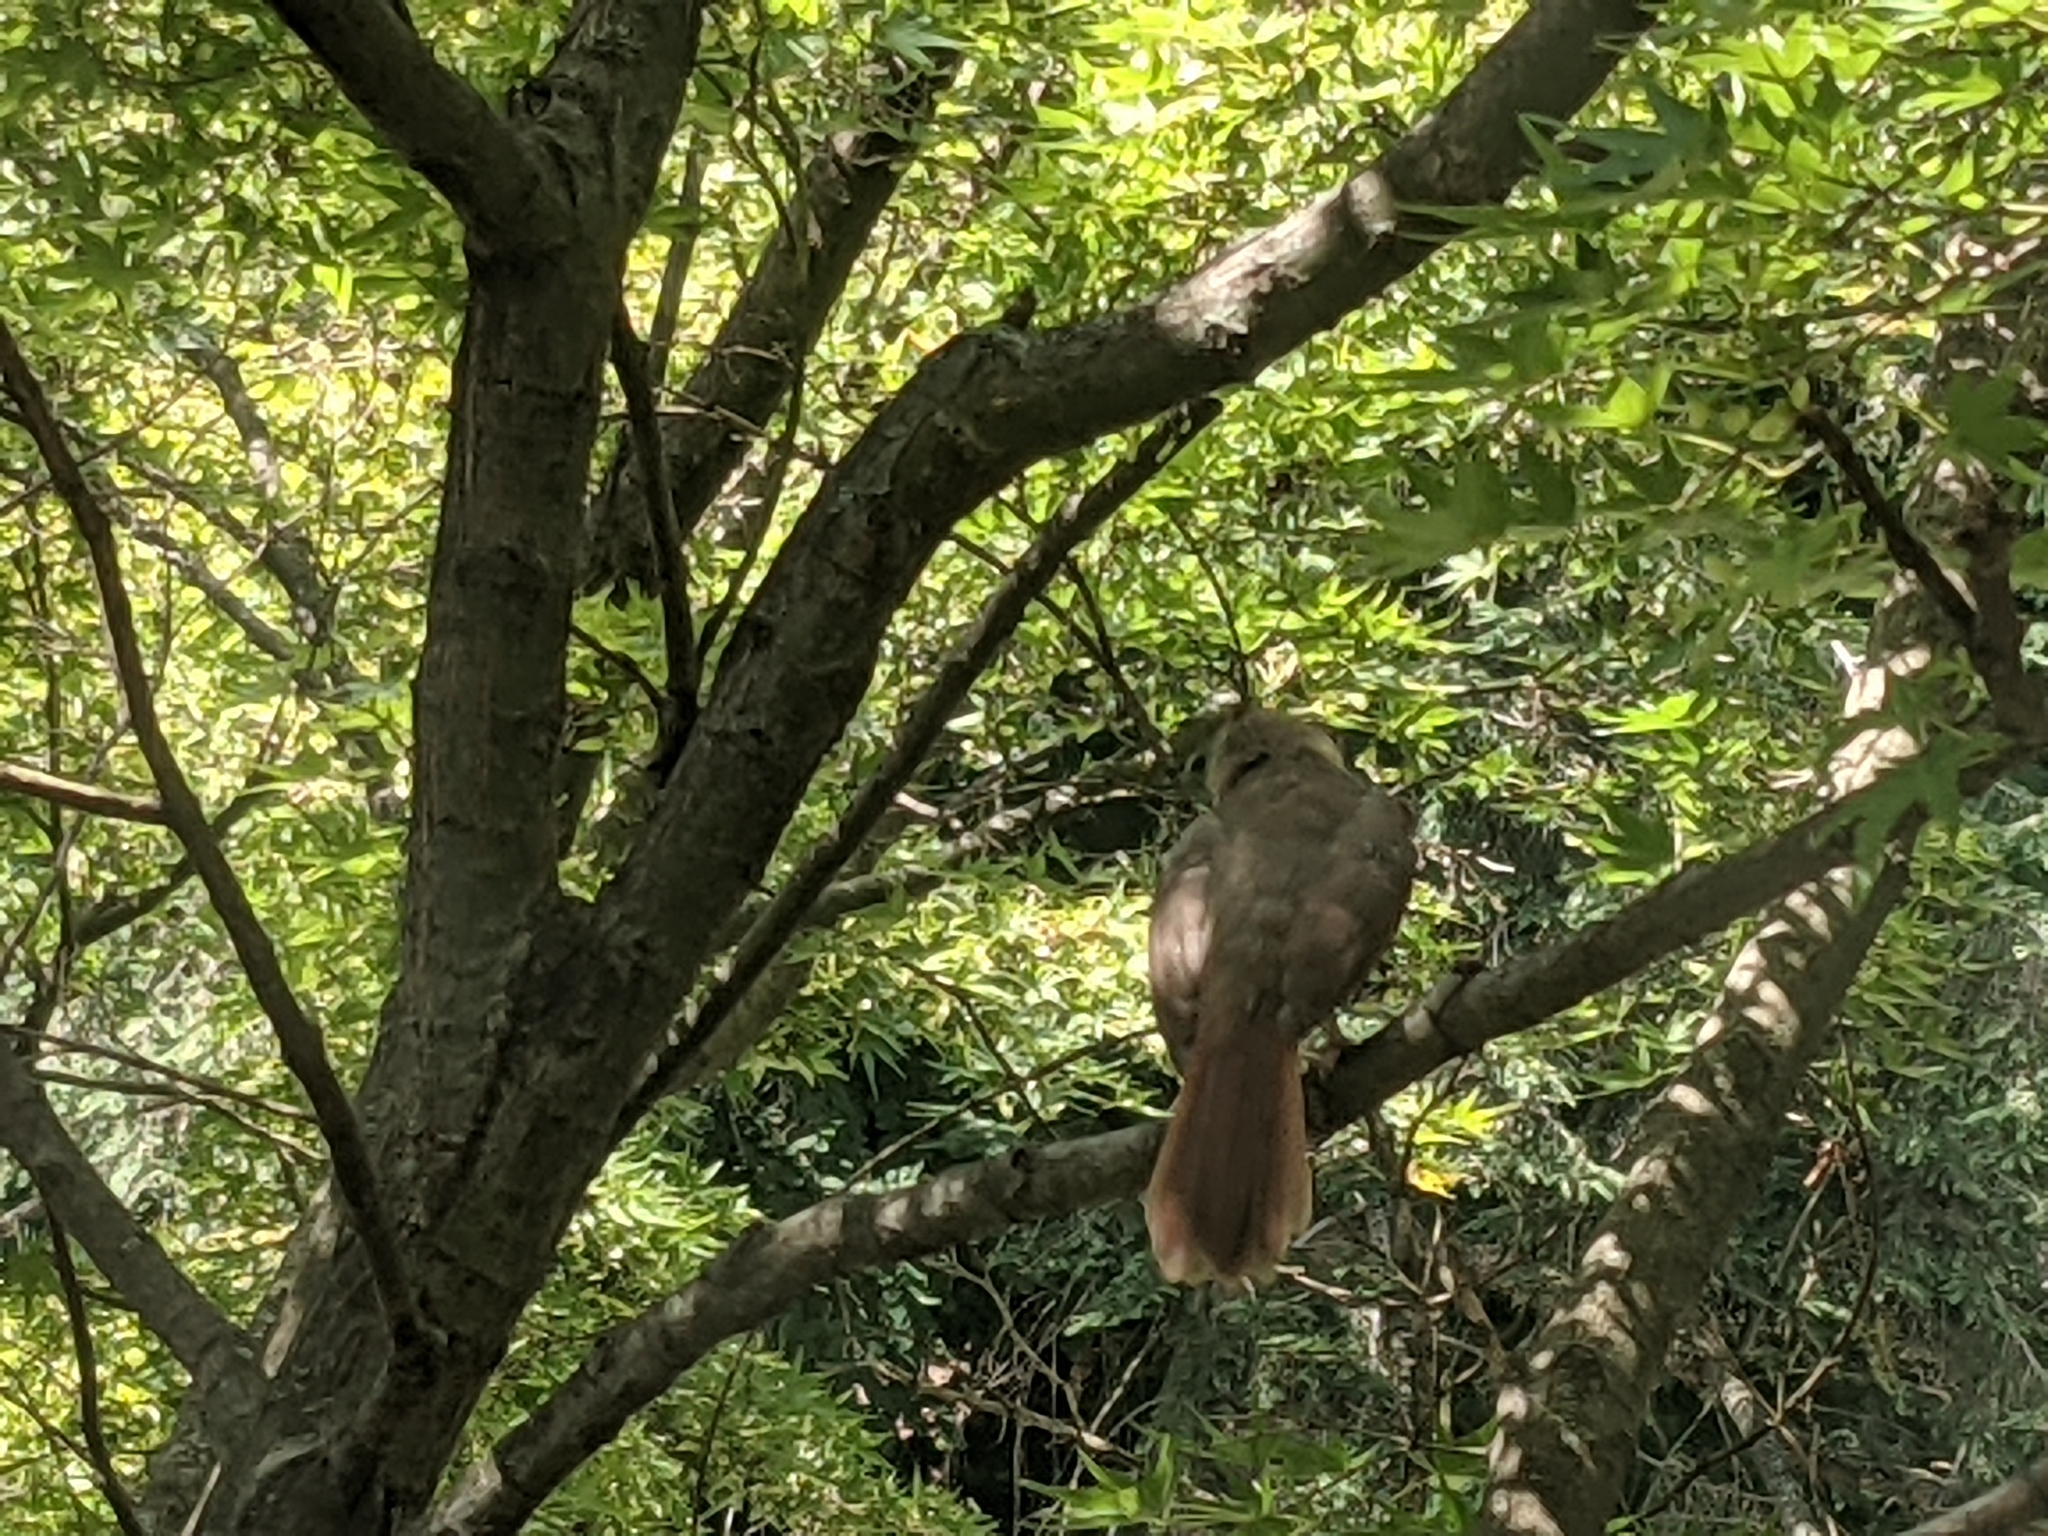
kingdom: Animalia
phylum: Chordata
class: Aves
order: Passeriformes
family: Cardinalidae
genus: Cardinalis
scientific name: Cardinalis cardinalis
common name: Northern cardinal
